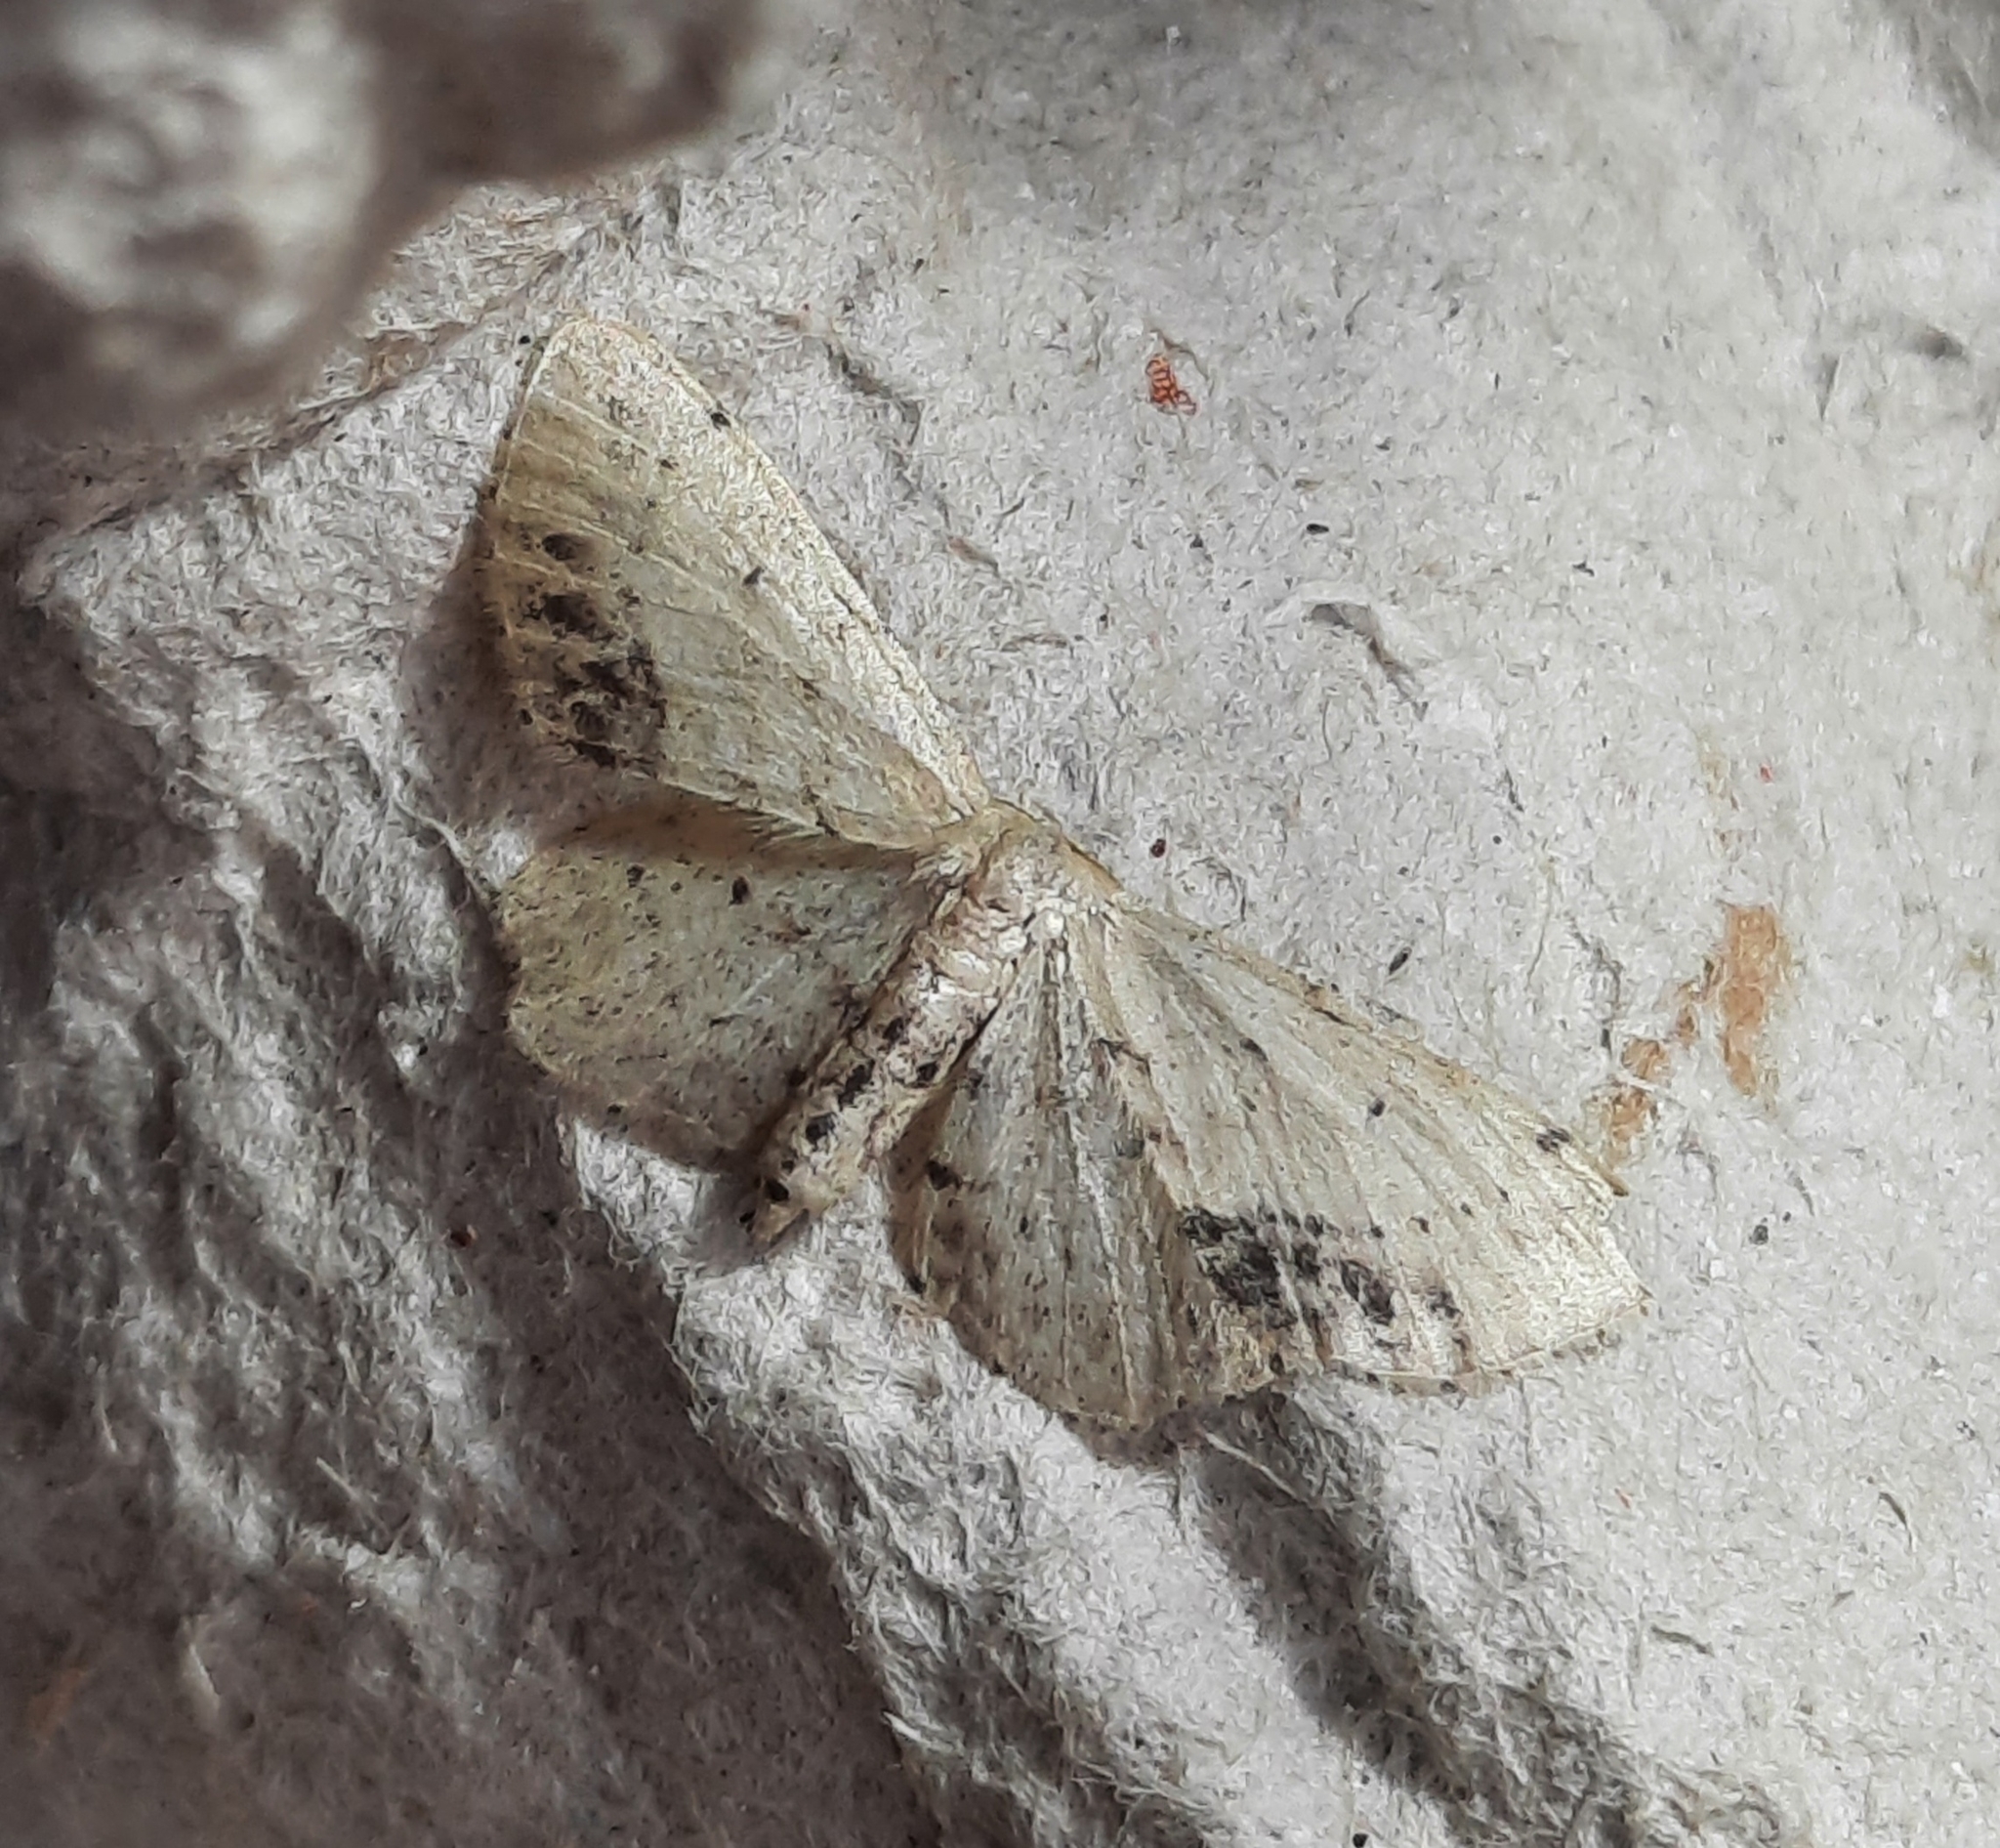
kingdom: Animalia
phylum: Arthropoda
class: Insecta
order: Lepidoptera
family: Geometridae
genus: Idaea
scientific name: Idaea dimidiata
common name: Single-dotted wave
